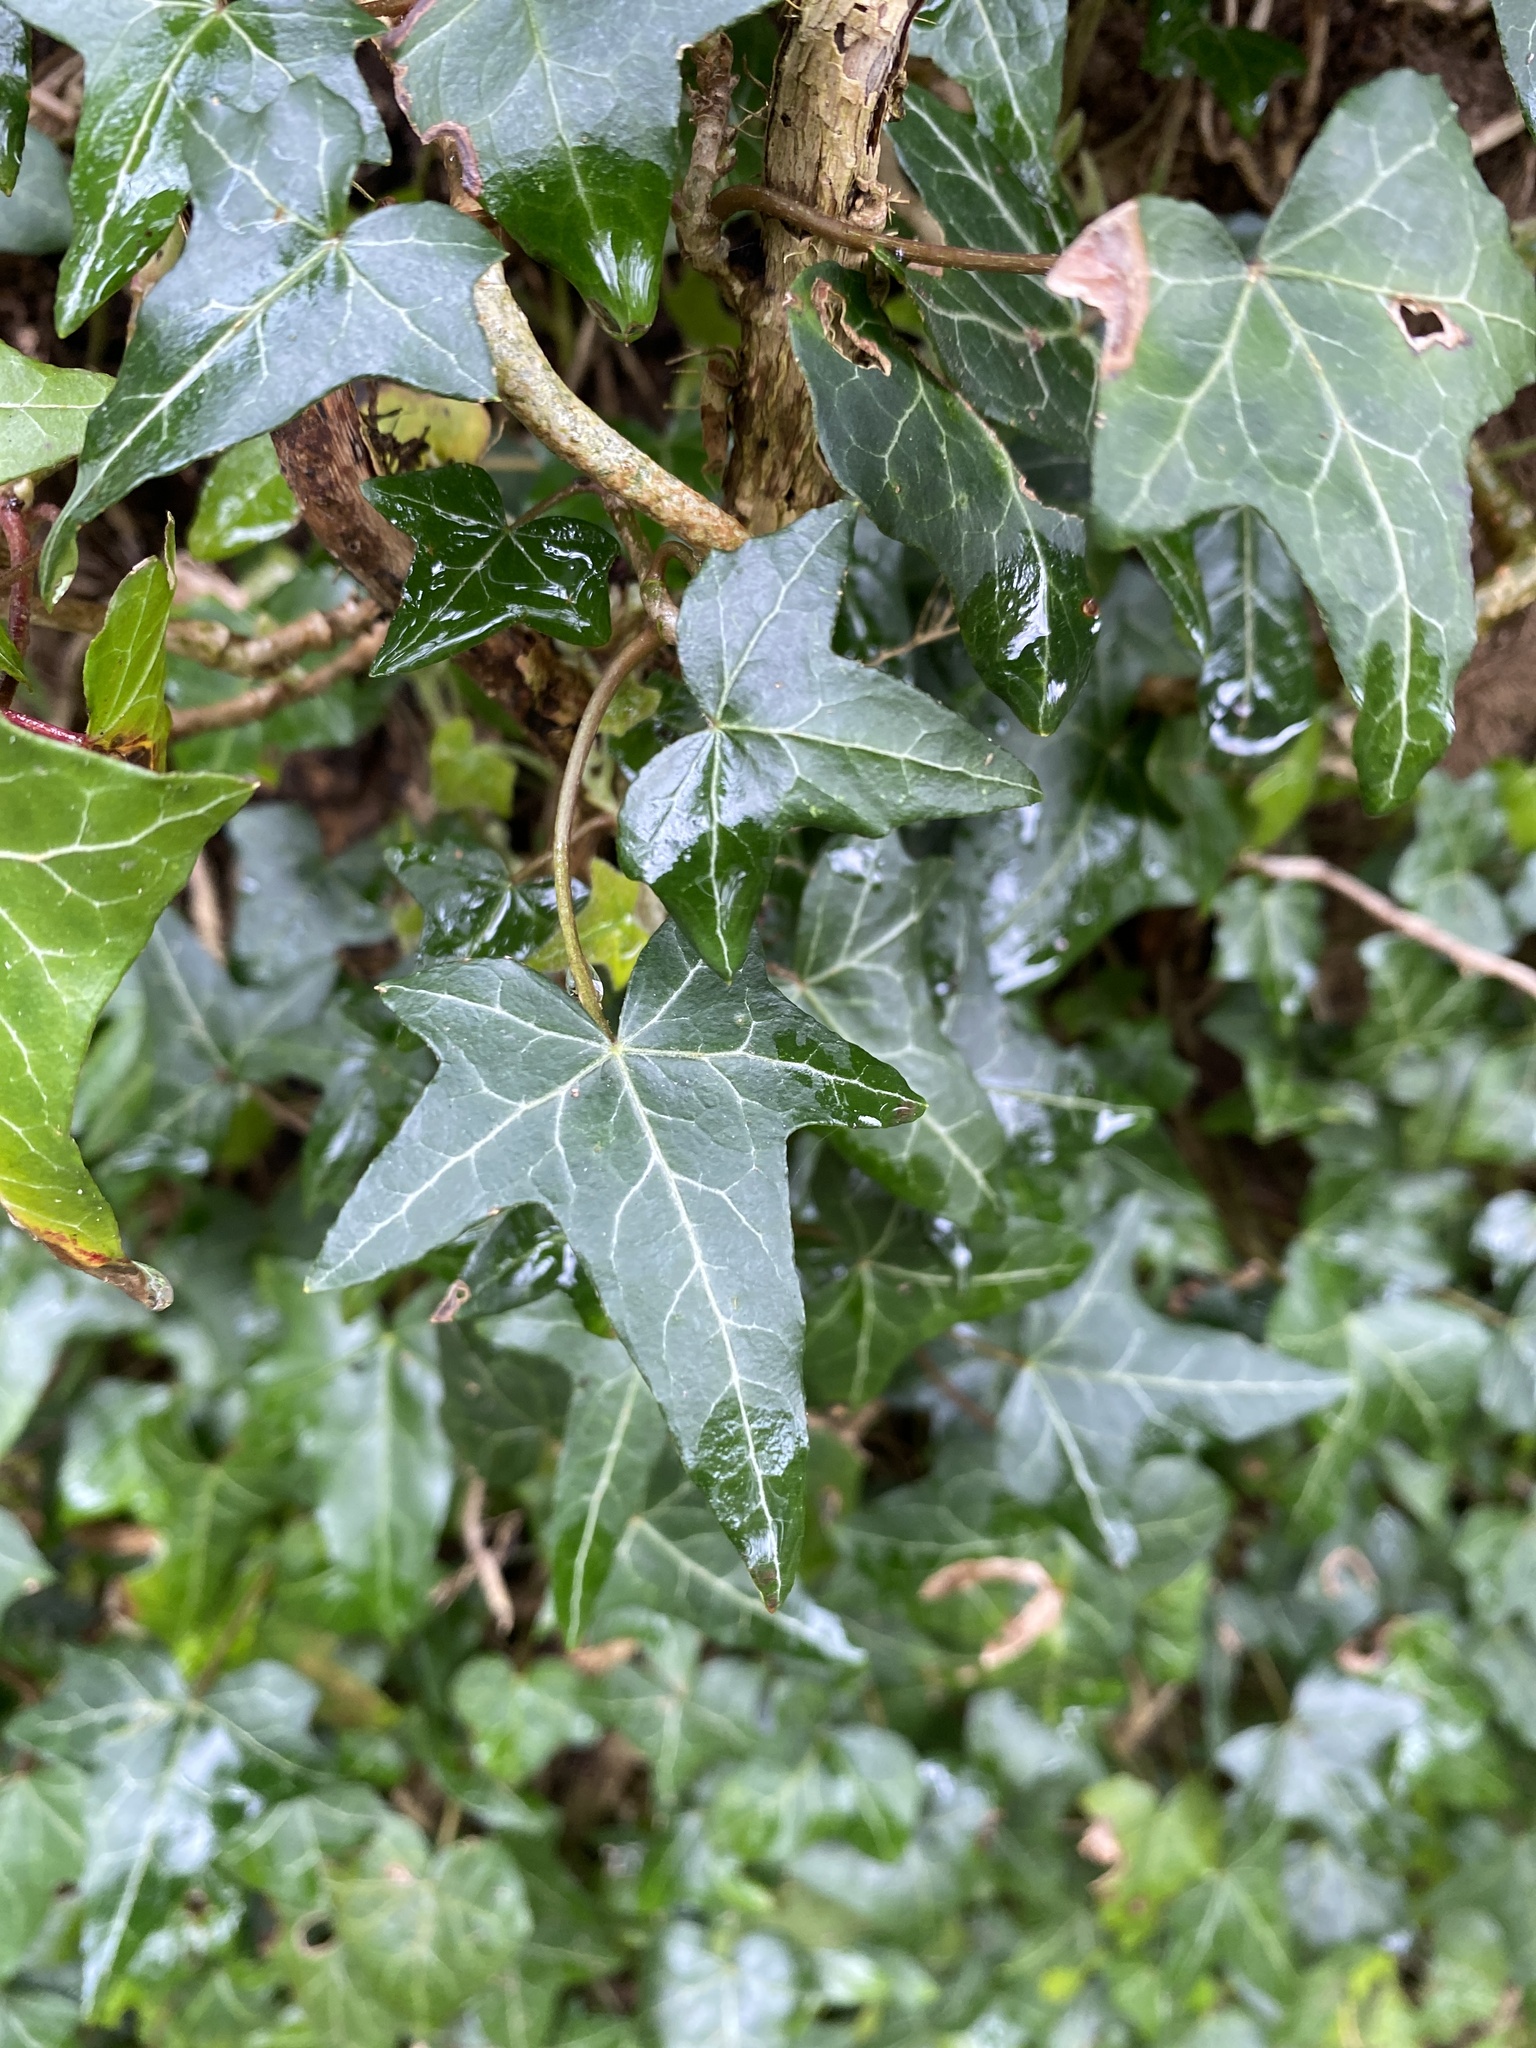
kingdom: Plantae
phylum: Tracheophyta
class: Magnoliopsida
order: Apiales
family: Araliaceae
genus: Hedera
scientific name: Hedera helix
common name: Ivy
